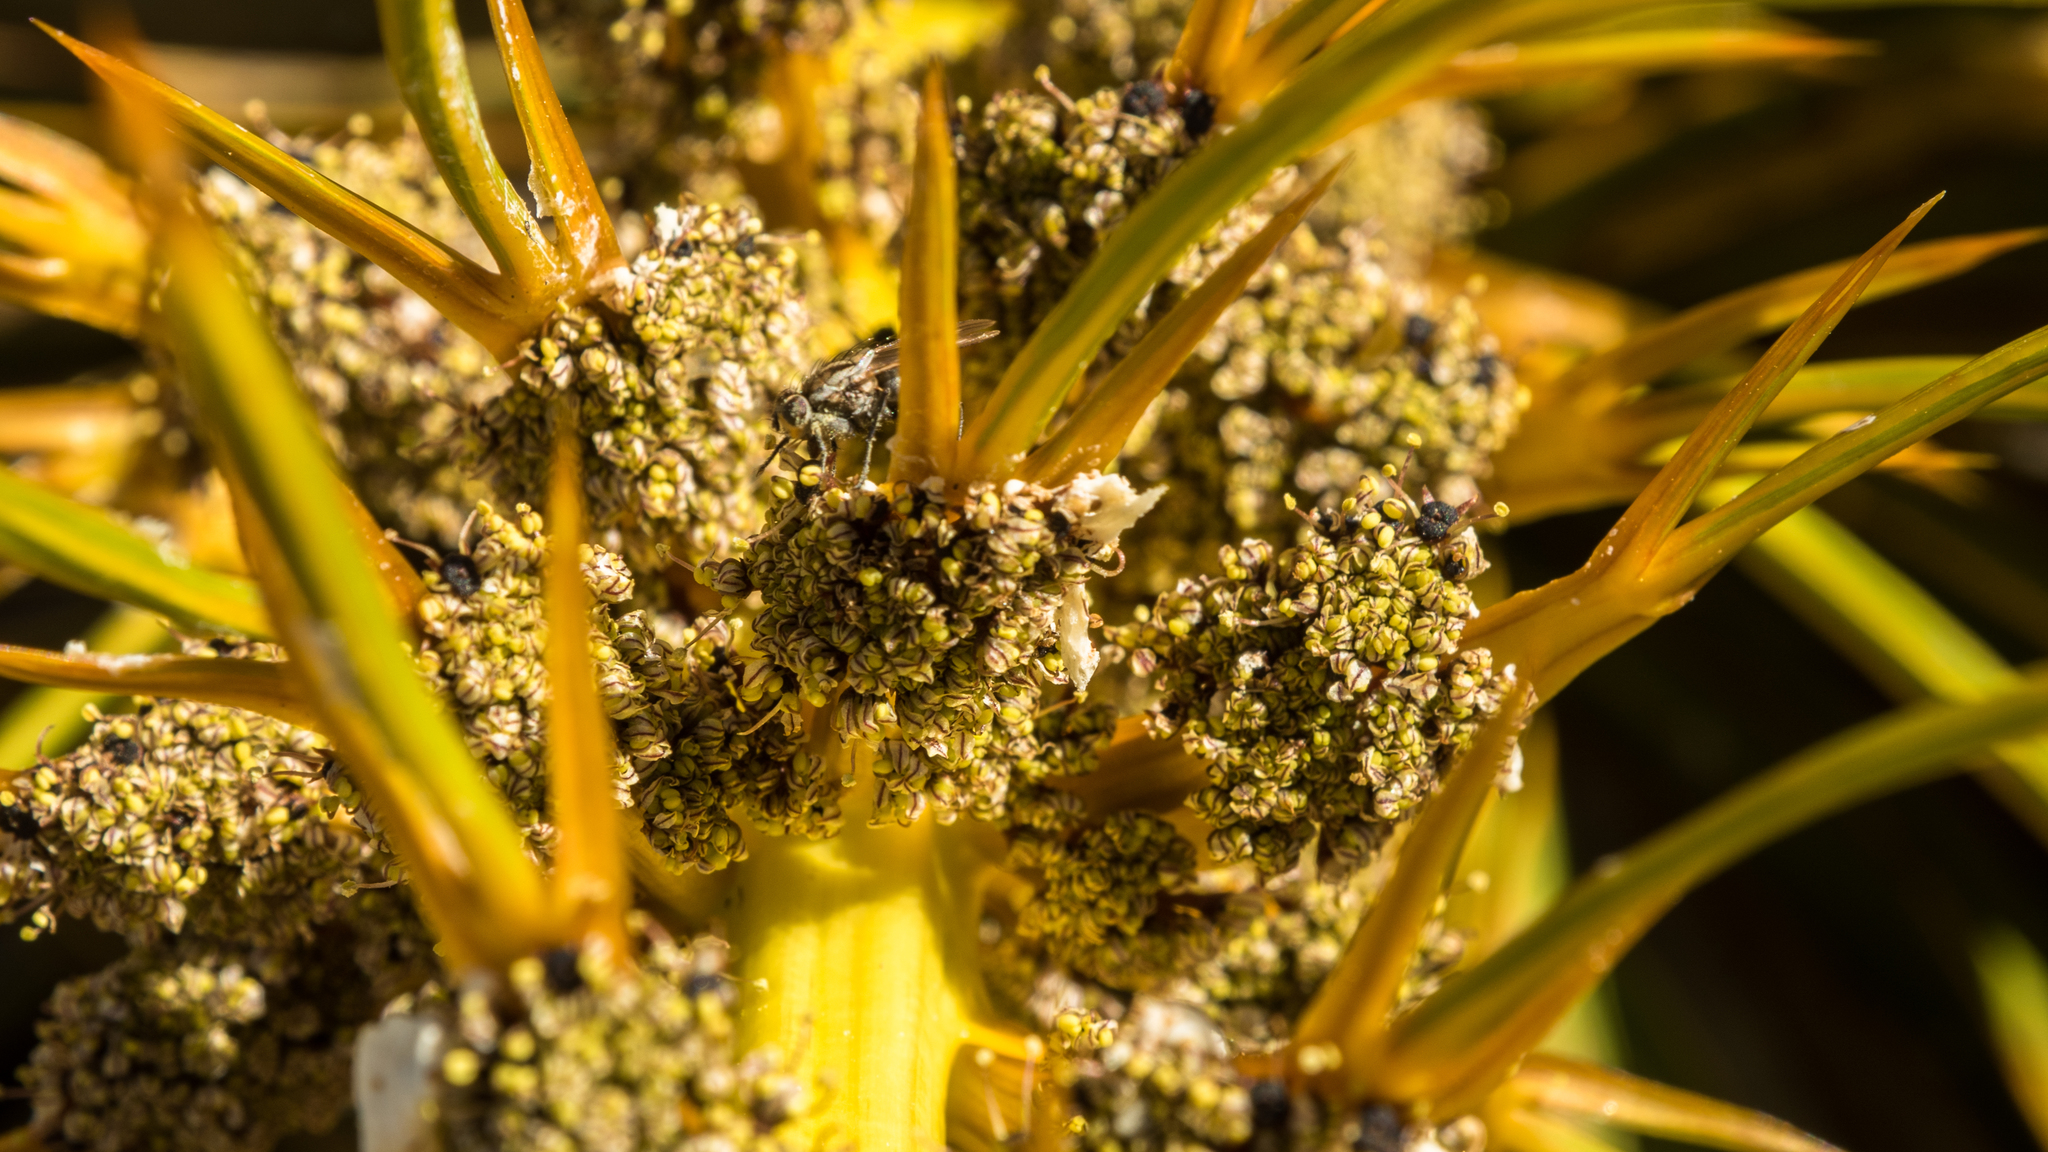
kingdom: Plantae
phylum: Tracheophyta
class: Magnoliopsida
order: Apiales
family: Apiaceae
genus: Aciphylla
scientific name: Aciphylla kirkii
